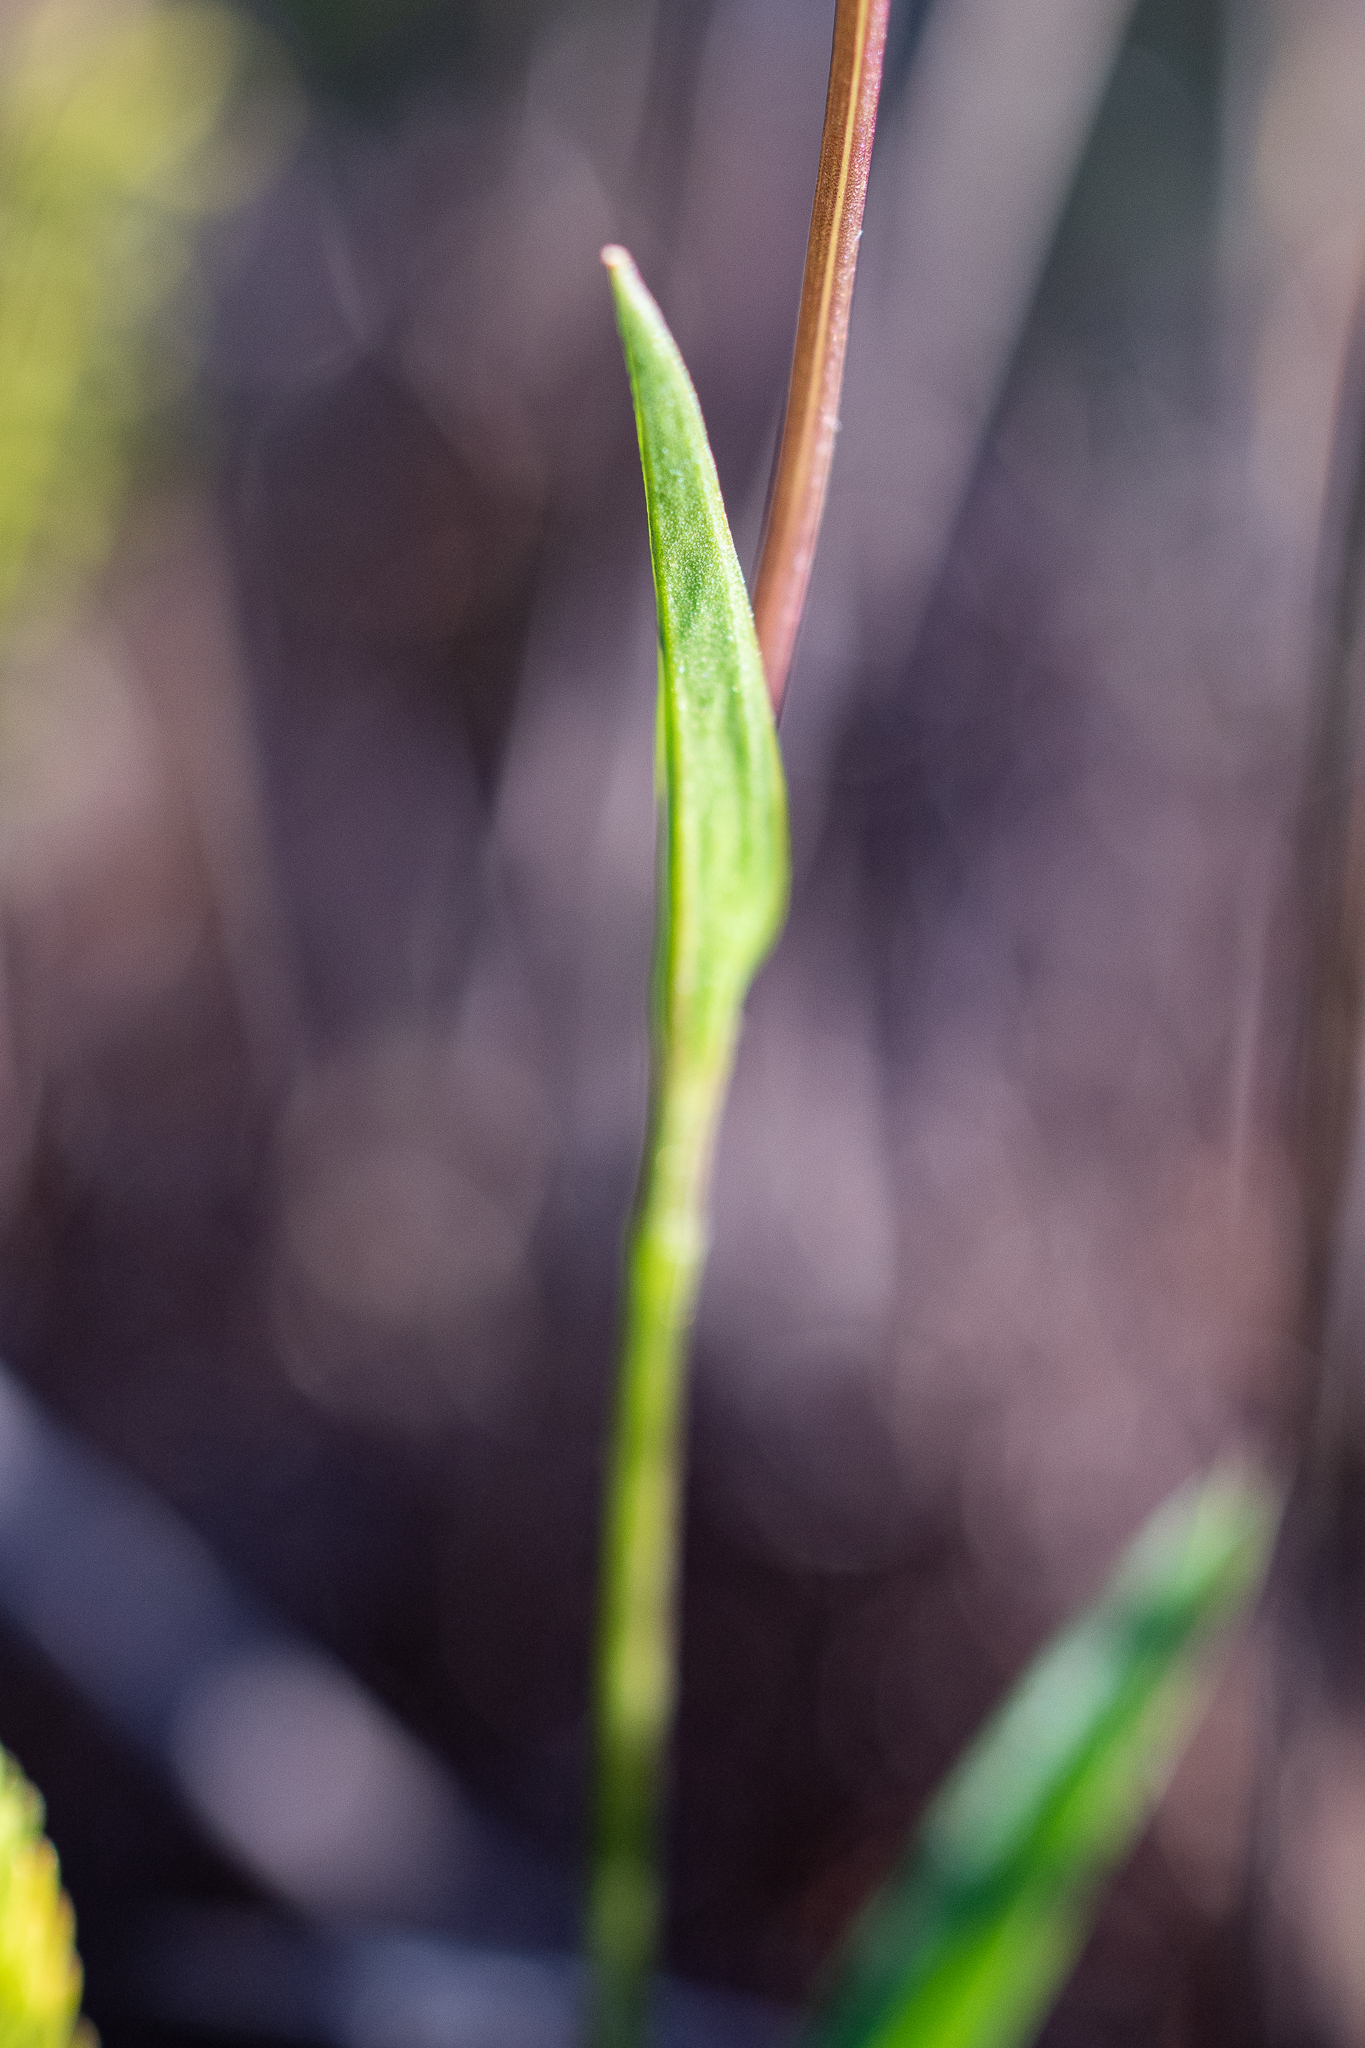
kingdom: Plantae
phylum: Tracheophyta
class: Liliopsida
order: Asparagales
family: Orchidaceae
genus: Disperis
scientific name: Disperis capensis
